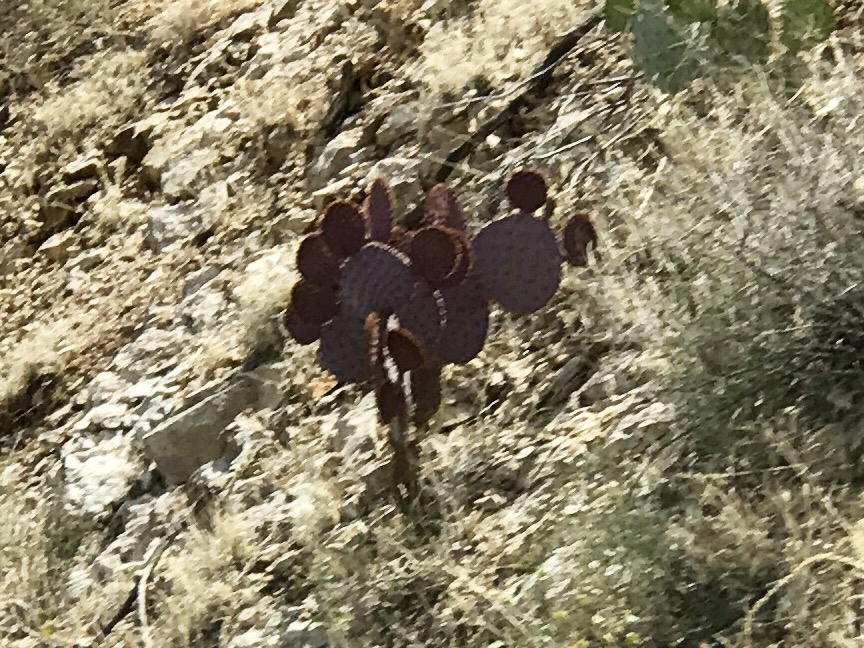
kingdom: Plantae
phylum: Tracheophyta
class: Magnoliopsida
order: Caryophyllales
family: Cactaceae
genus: Opuntia
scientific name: Opuntia gosseliniana
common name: Violet prickly-pear
